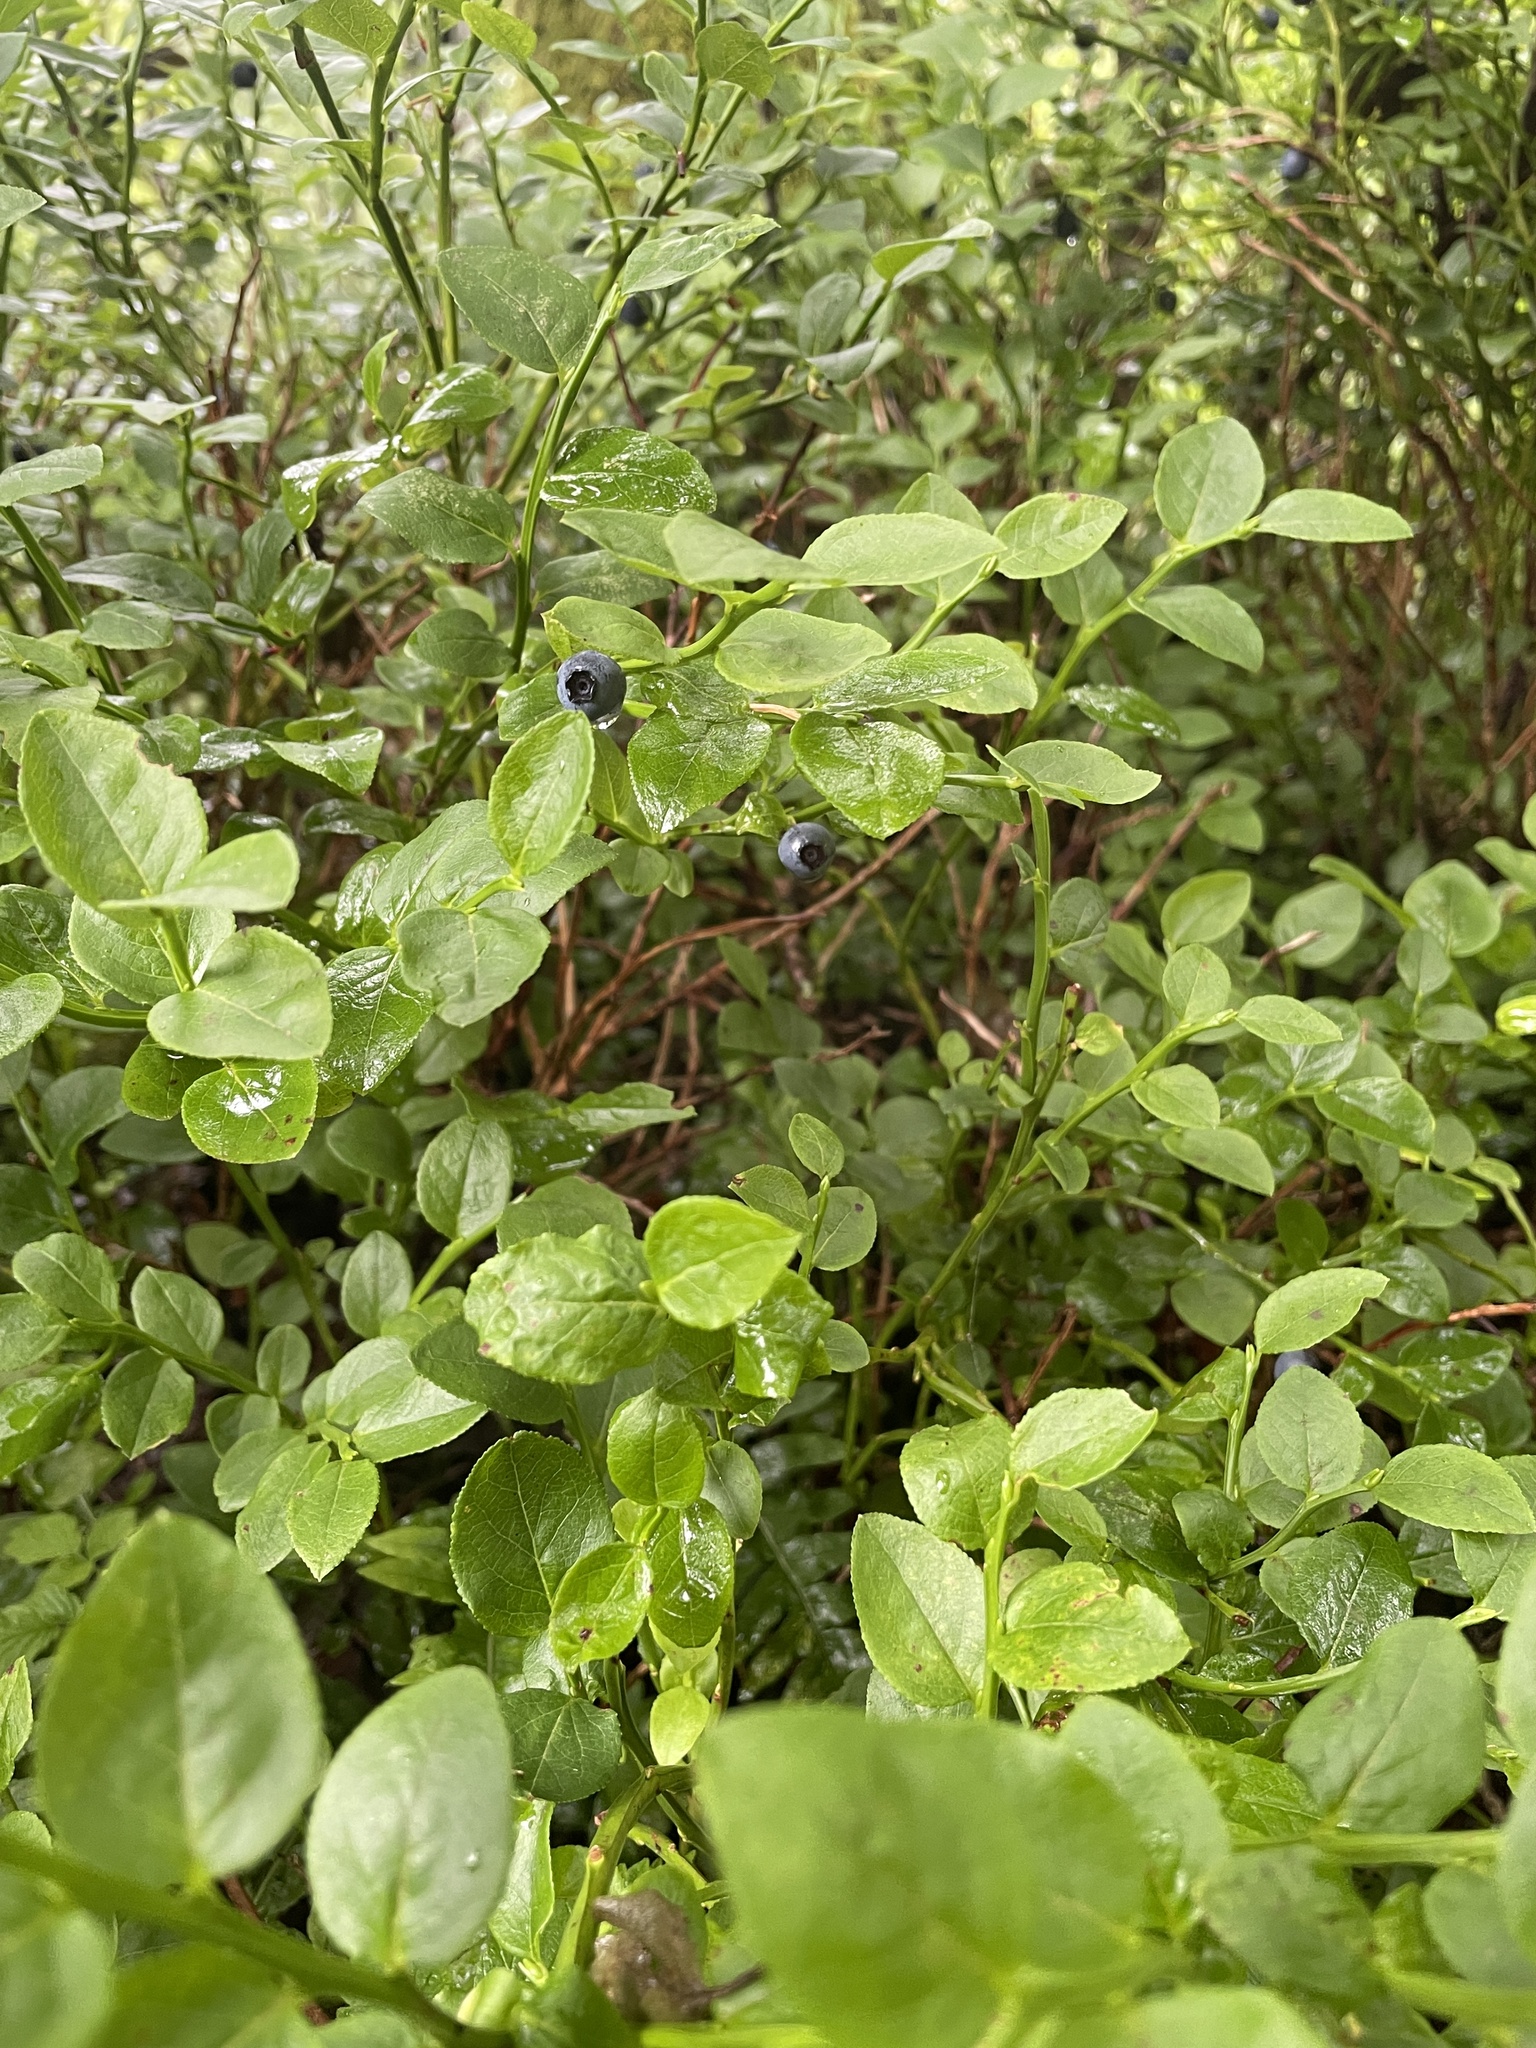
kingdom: Plantae
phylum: Tracheophyta
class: Magnoliopsida
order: Ericales
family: Ericaceae
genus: Vaccinium
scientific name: Vaccinium myrtillus
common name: Bilberry
